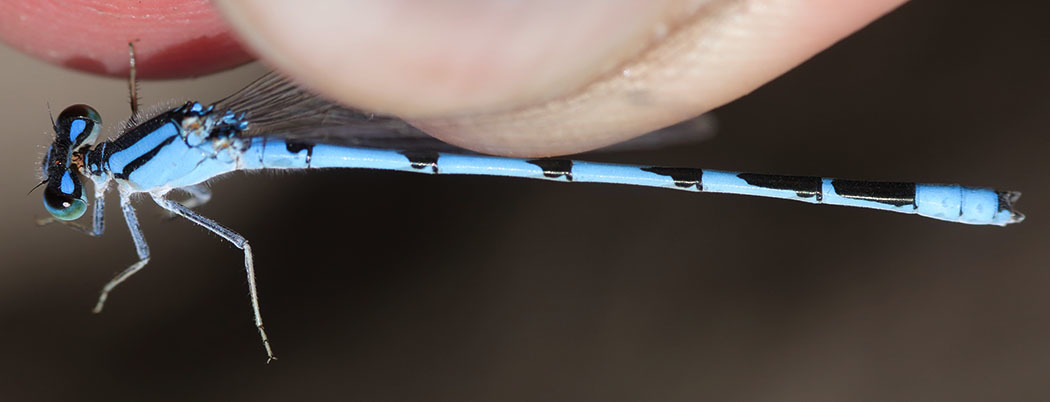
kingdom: Animalia
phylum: Arthropoda
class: Insecta
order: Odonata
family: Coenagrionidae
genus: Enallagma
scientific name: Enallagma civile
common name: Damselfly
